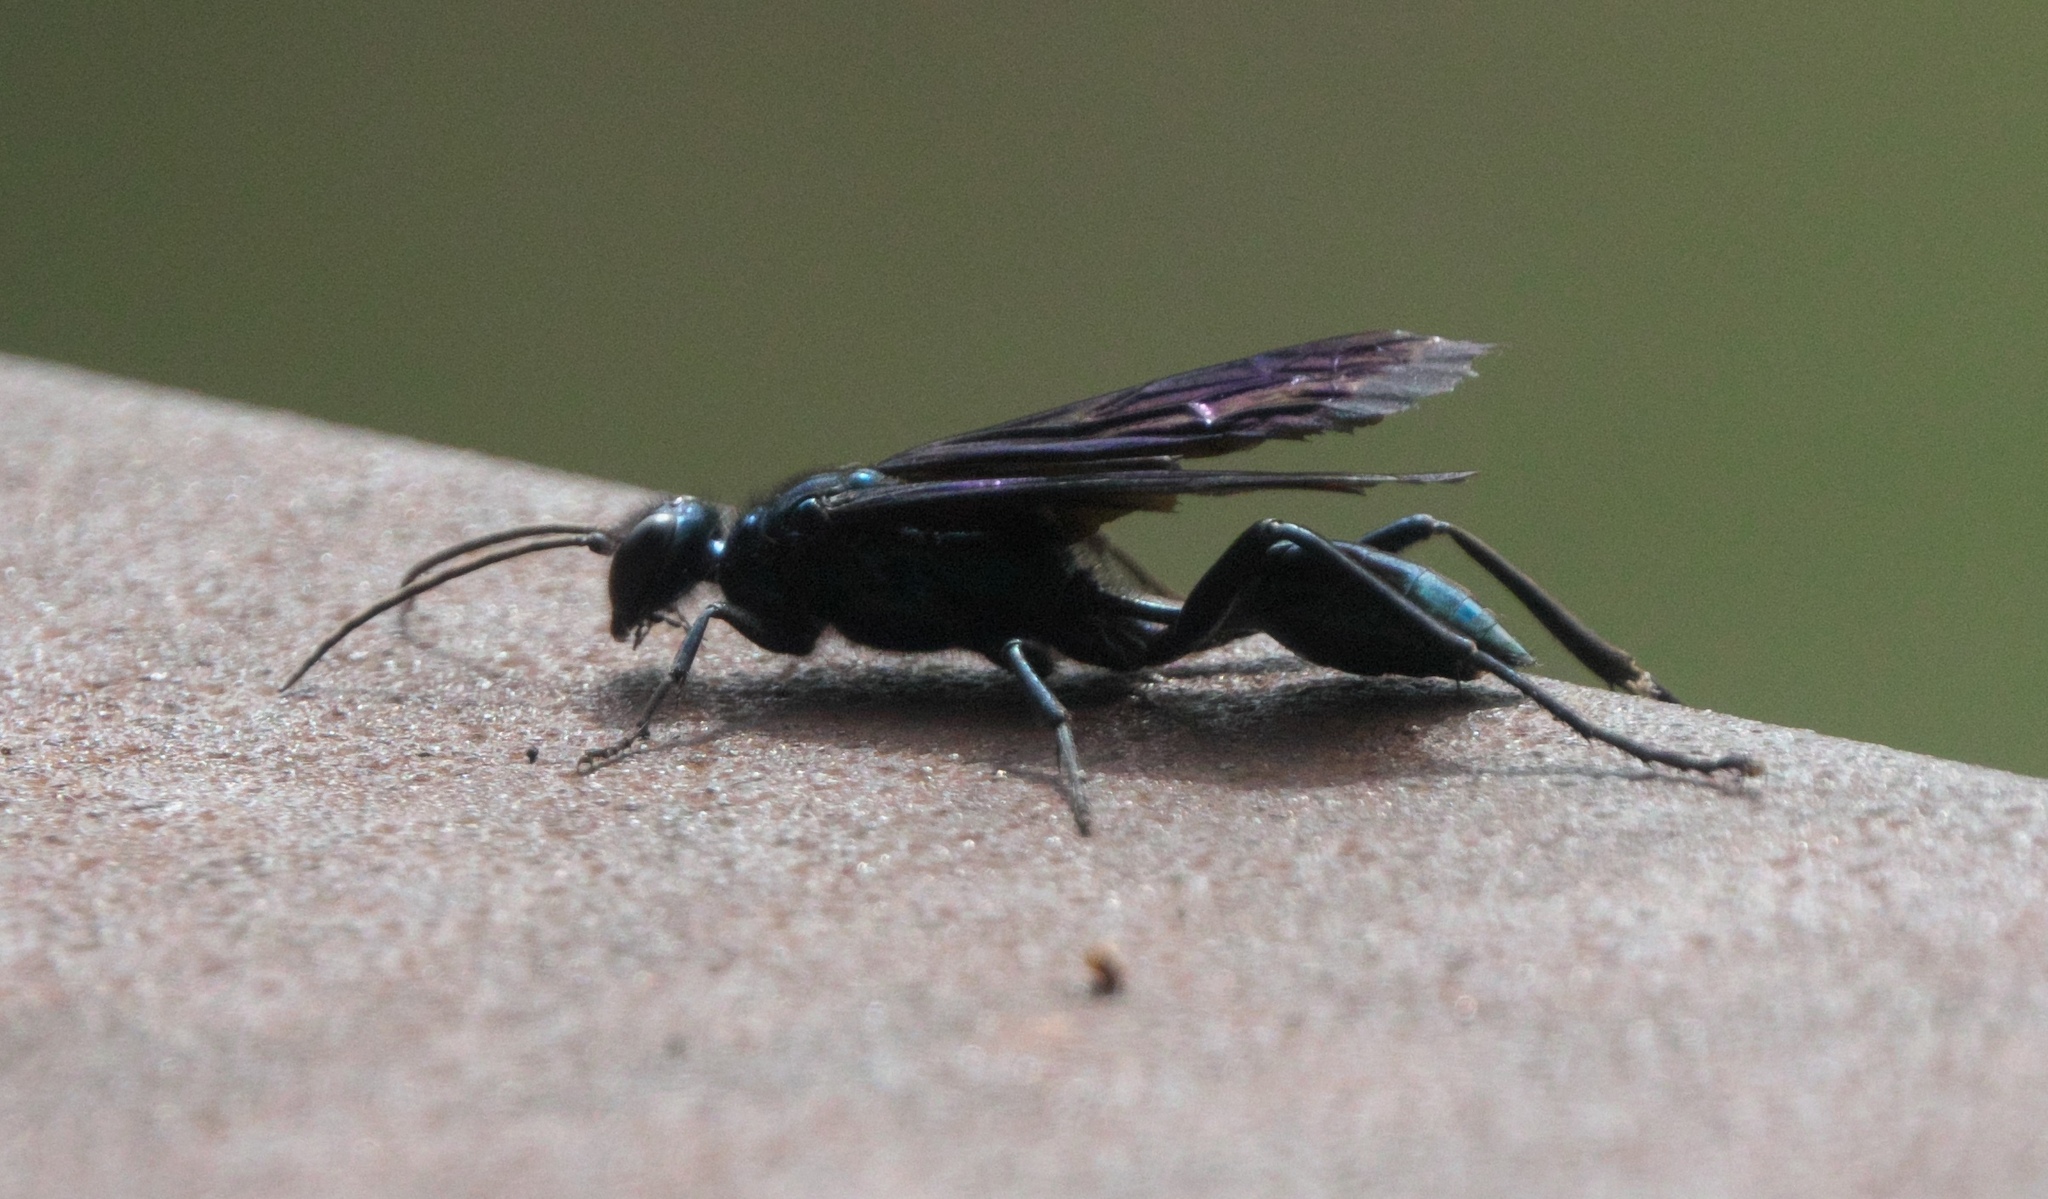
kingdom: Animalia
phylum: Arthropoda
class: Insecta
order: Hymenoptera
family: Sphecidae
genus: Chalybion
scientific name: Chalybion californicum
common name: Mud dauber
